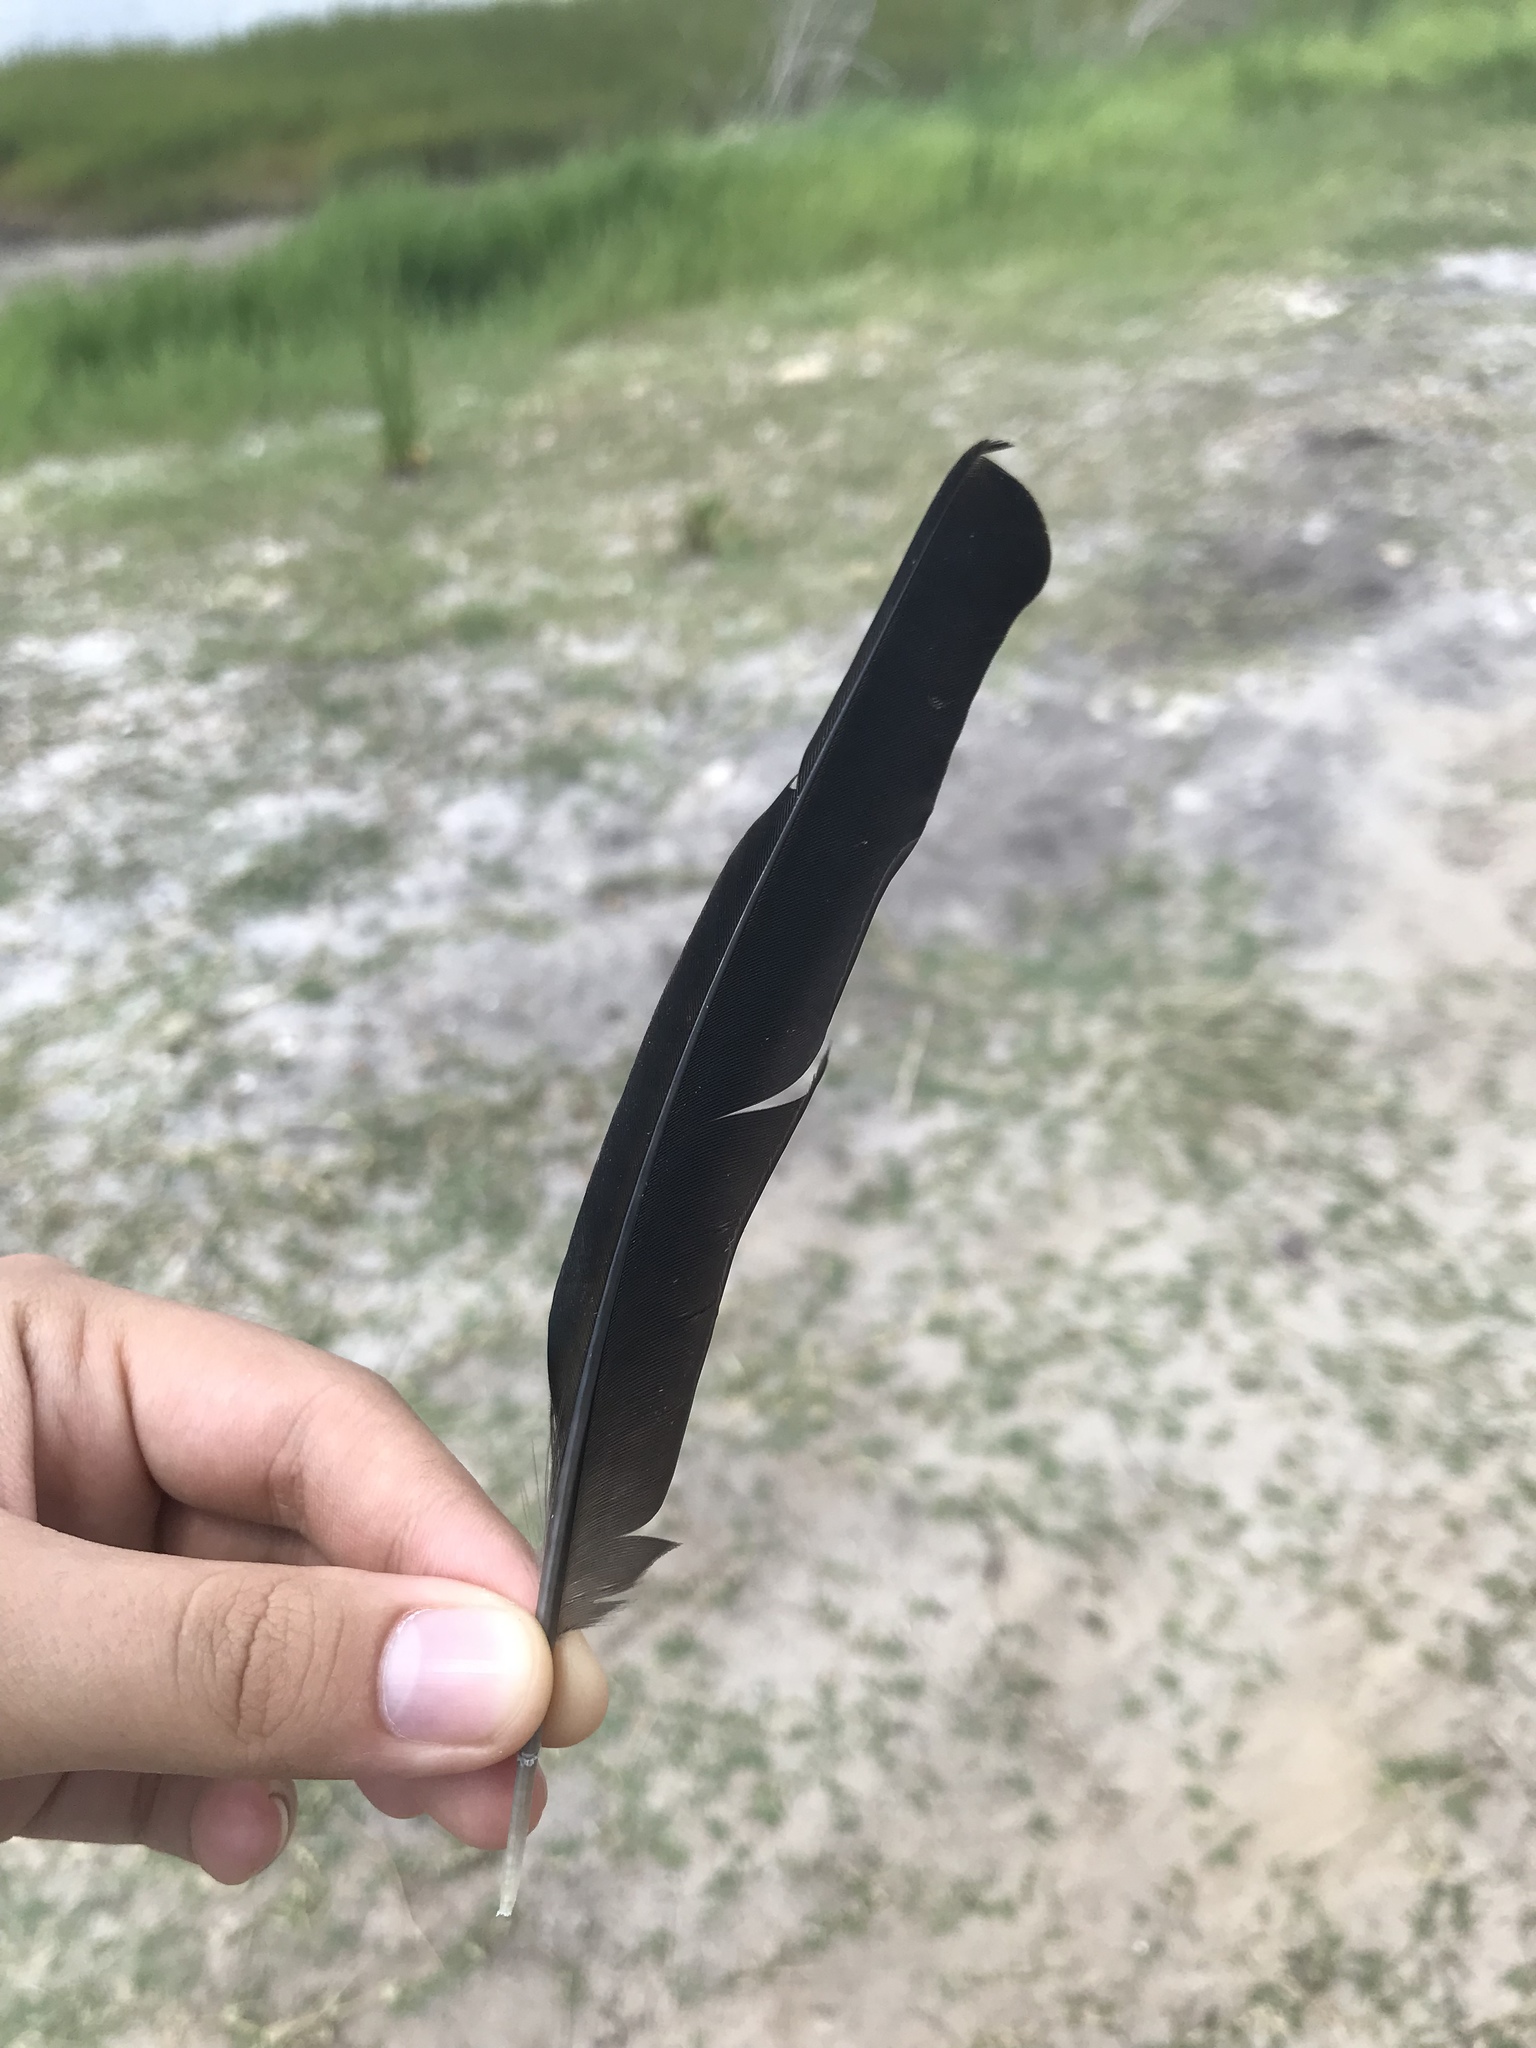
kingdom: Animalia
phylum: Chordata
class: Aves
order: Passeriformes
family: Icteridae
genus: Quiscalus
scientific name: Quiscalus major
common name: Boat-tailed grackle
